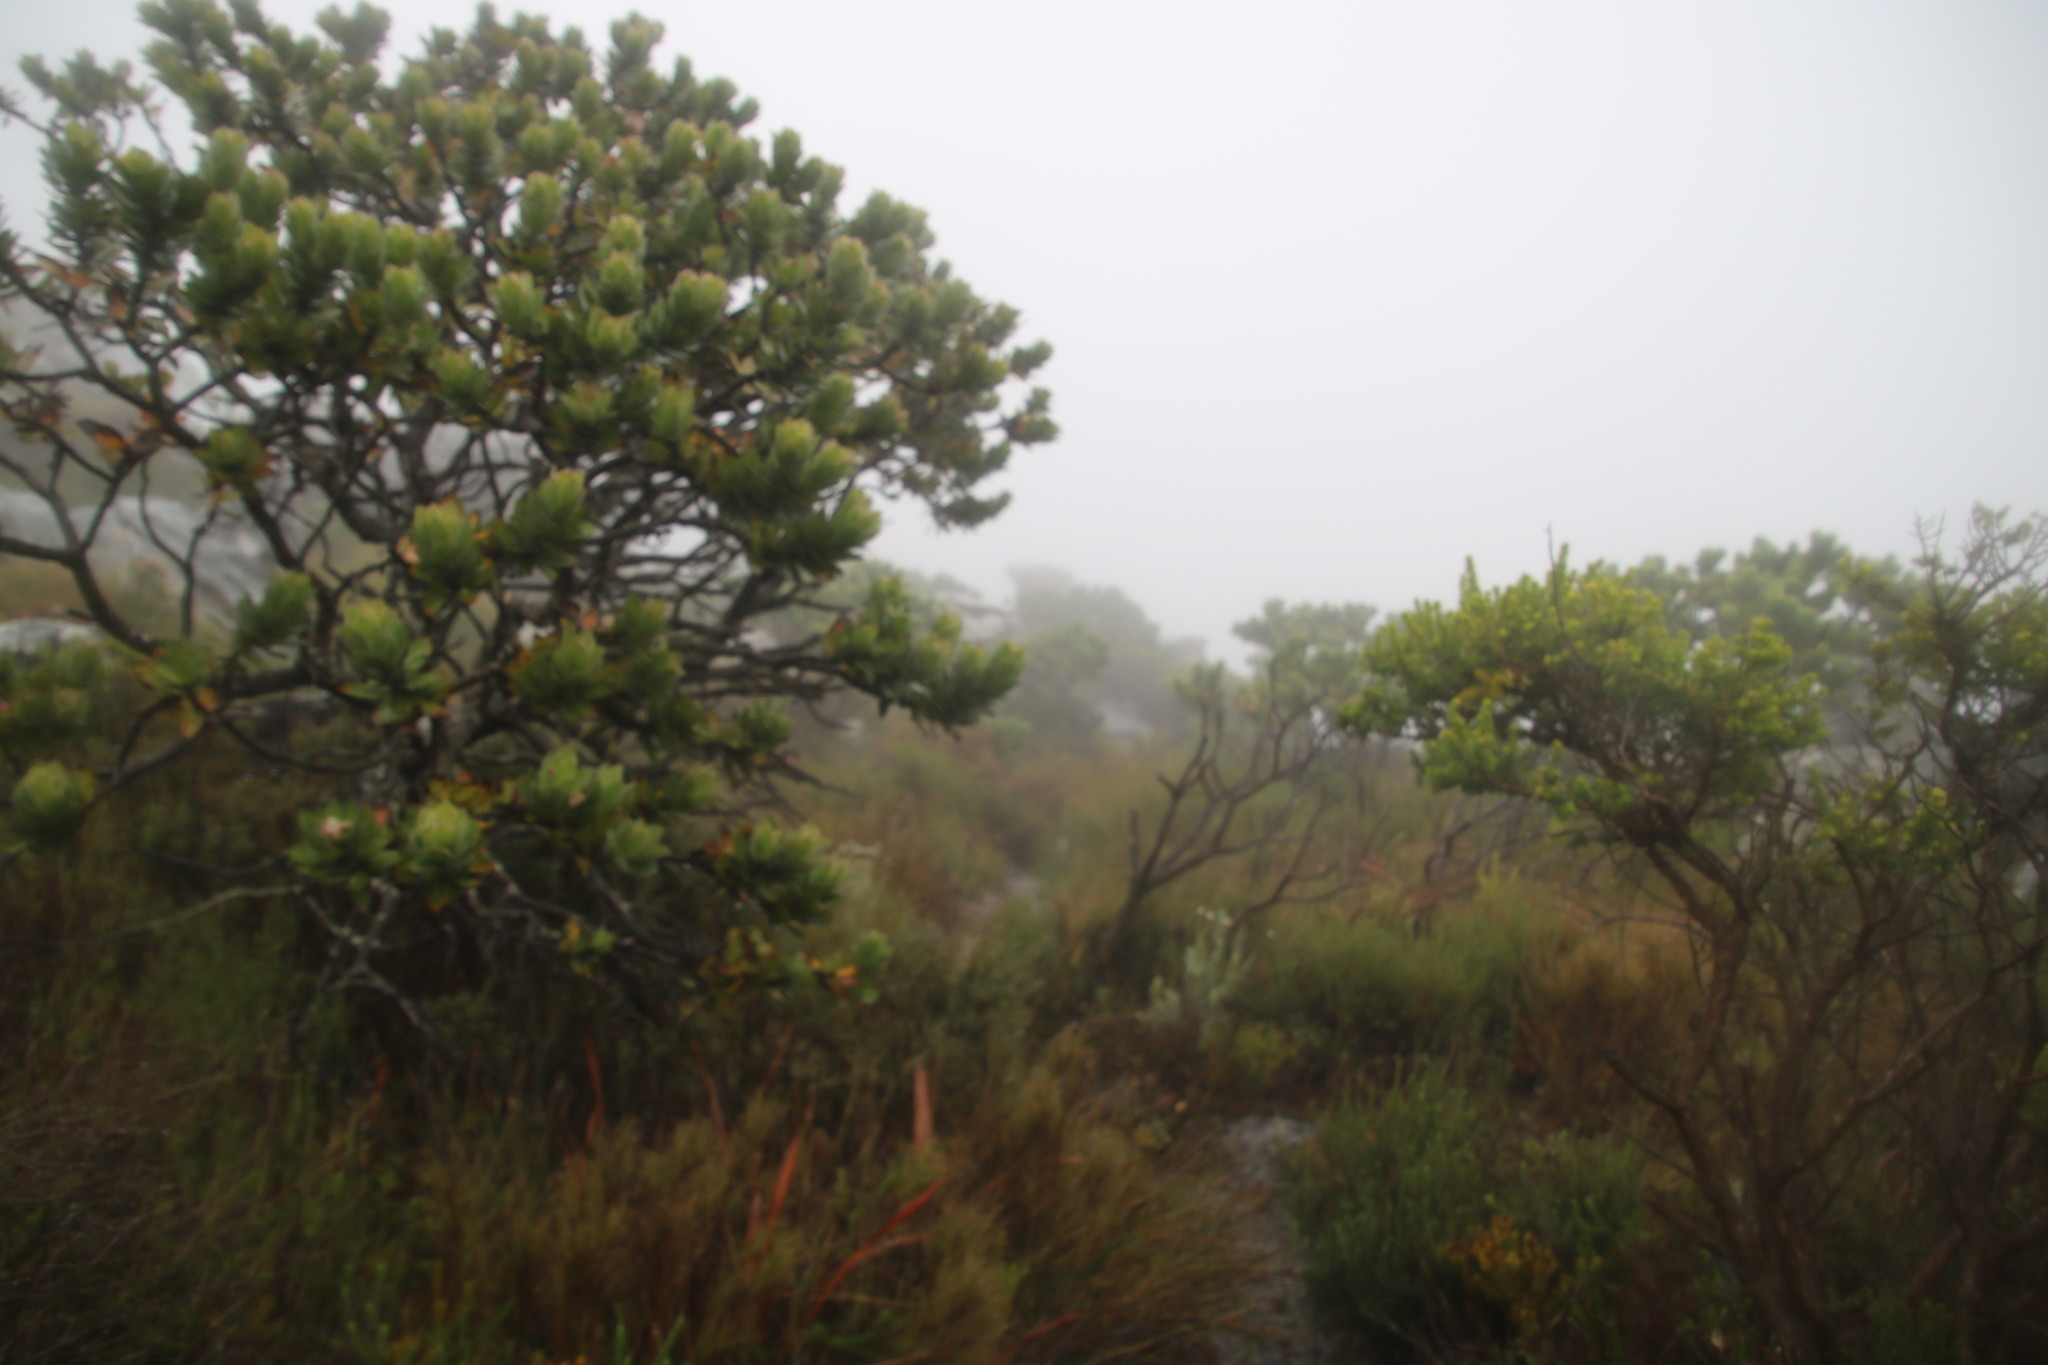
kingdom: Plantae
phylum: Tracheophyta
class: Magnoliopsida
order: Proteales
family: Proteaceae
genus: Leucospermum
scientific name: Leucospermum conocarpodendron
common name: Tree pincushion
